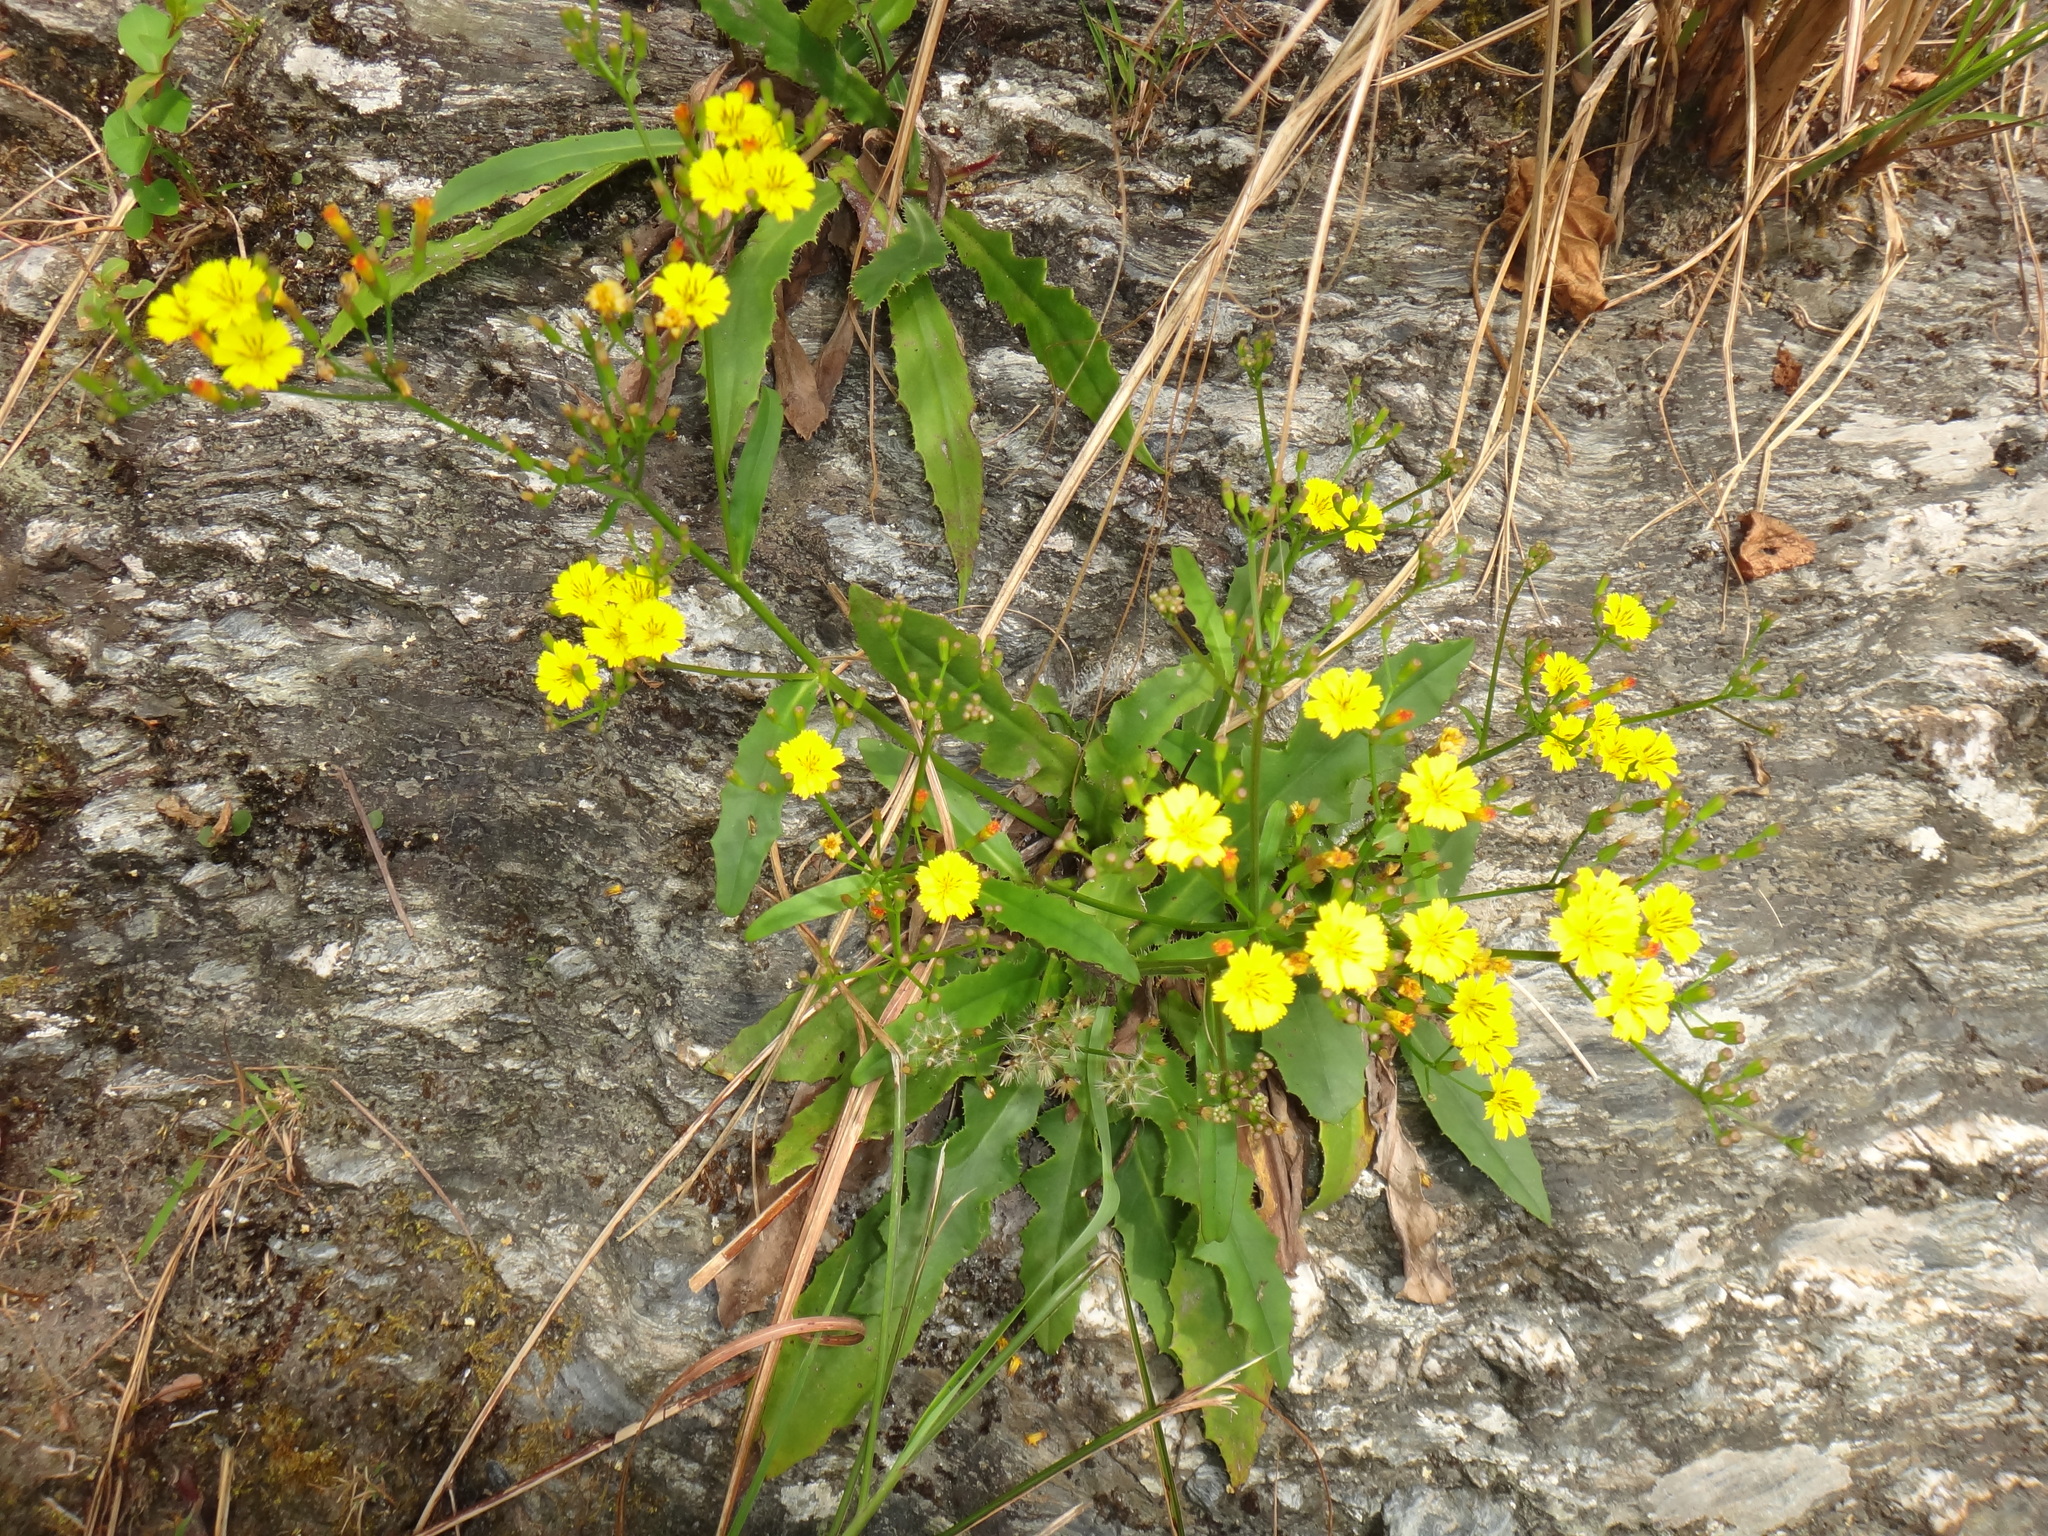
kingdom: Plantae
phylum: Tracheophyta
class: Magnoliopsida
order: Asterales
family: Asteraceae
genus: Ixeridium
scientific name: Ixeridium laevigatum
